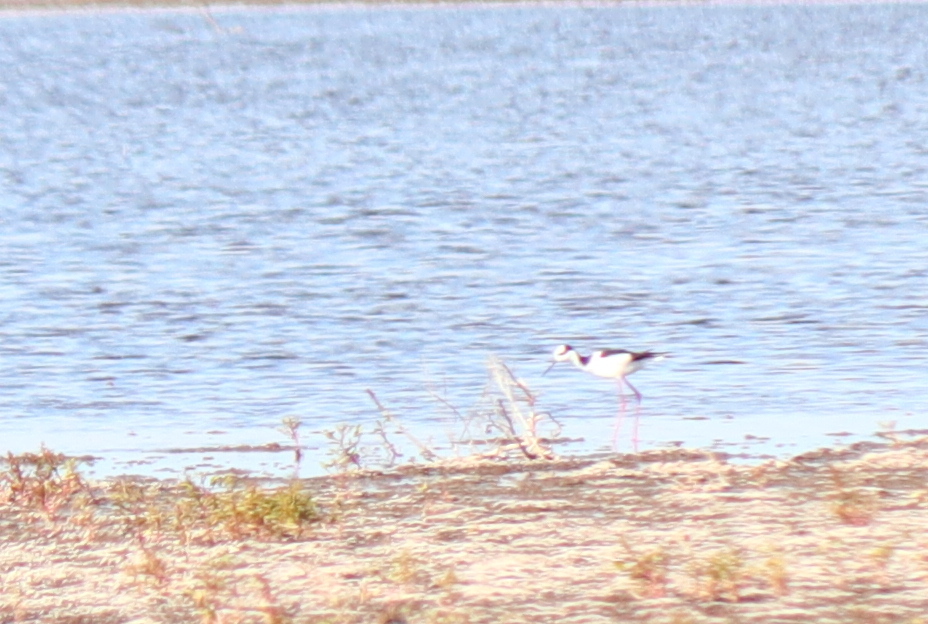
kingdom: Animalia
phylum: Chordata
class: Aves
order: Charadriiformes
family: Recurvirostridae
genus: Himantopus
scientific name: Himantopus mexicanus
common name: Black-necked stilt
